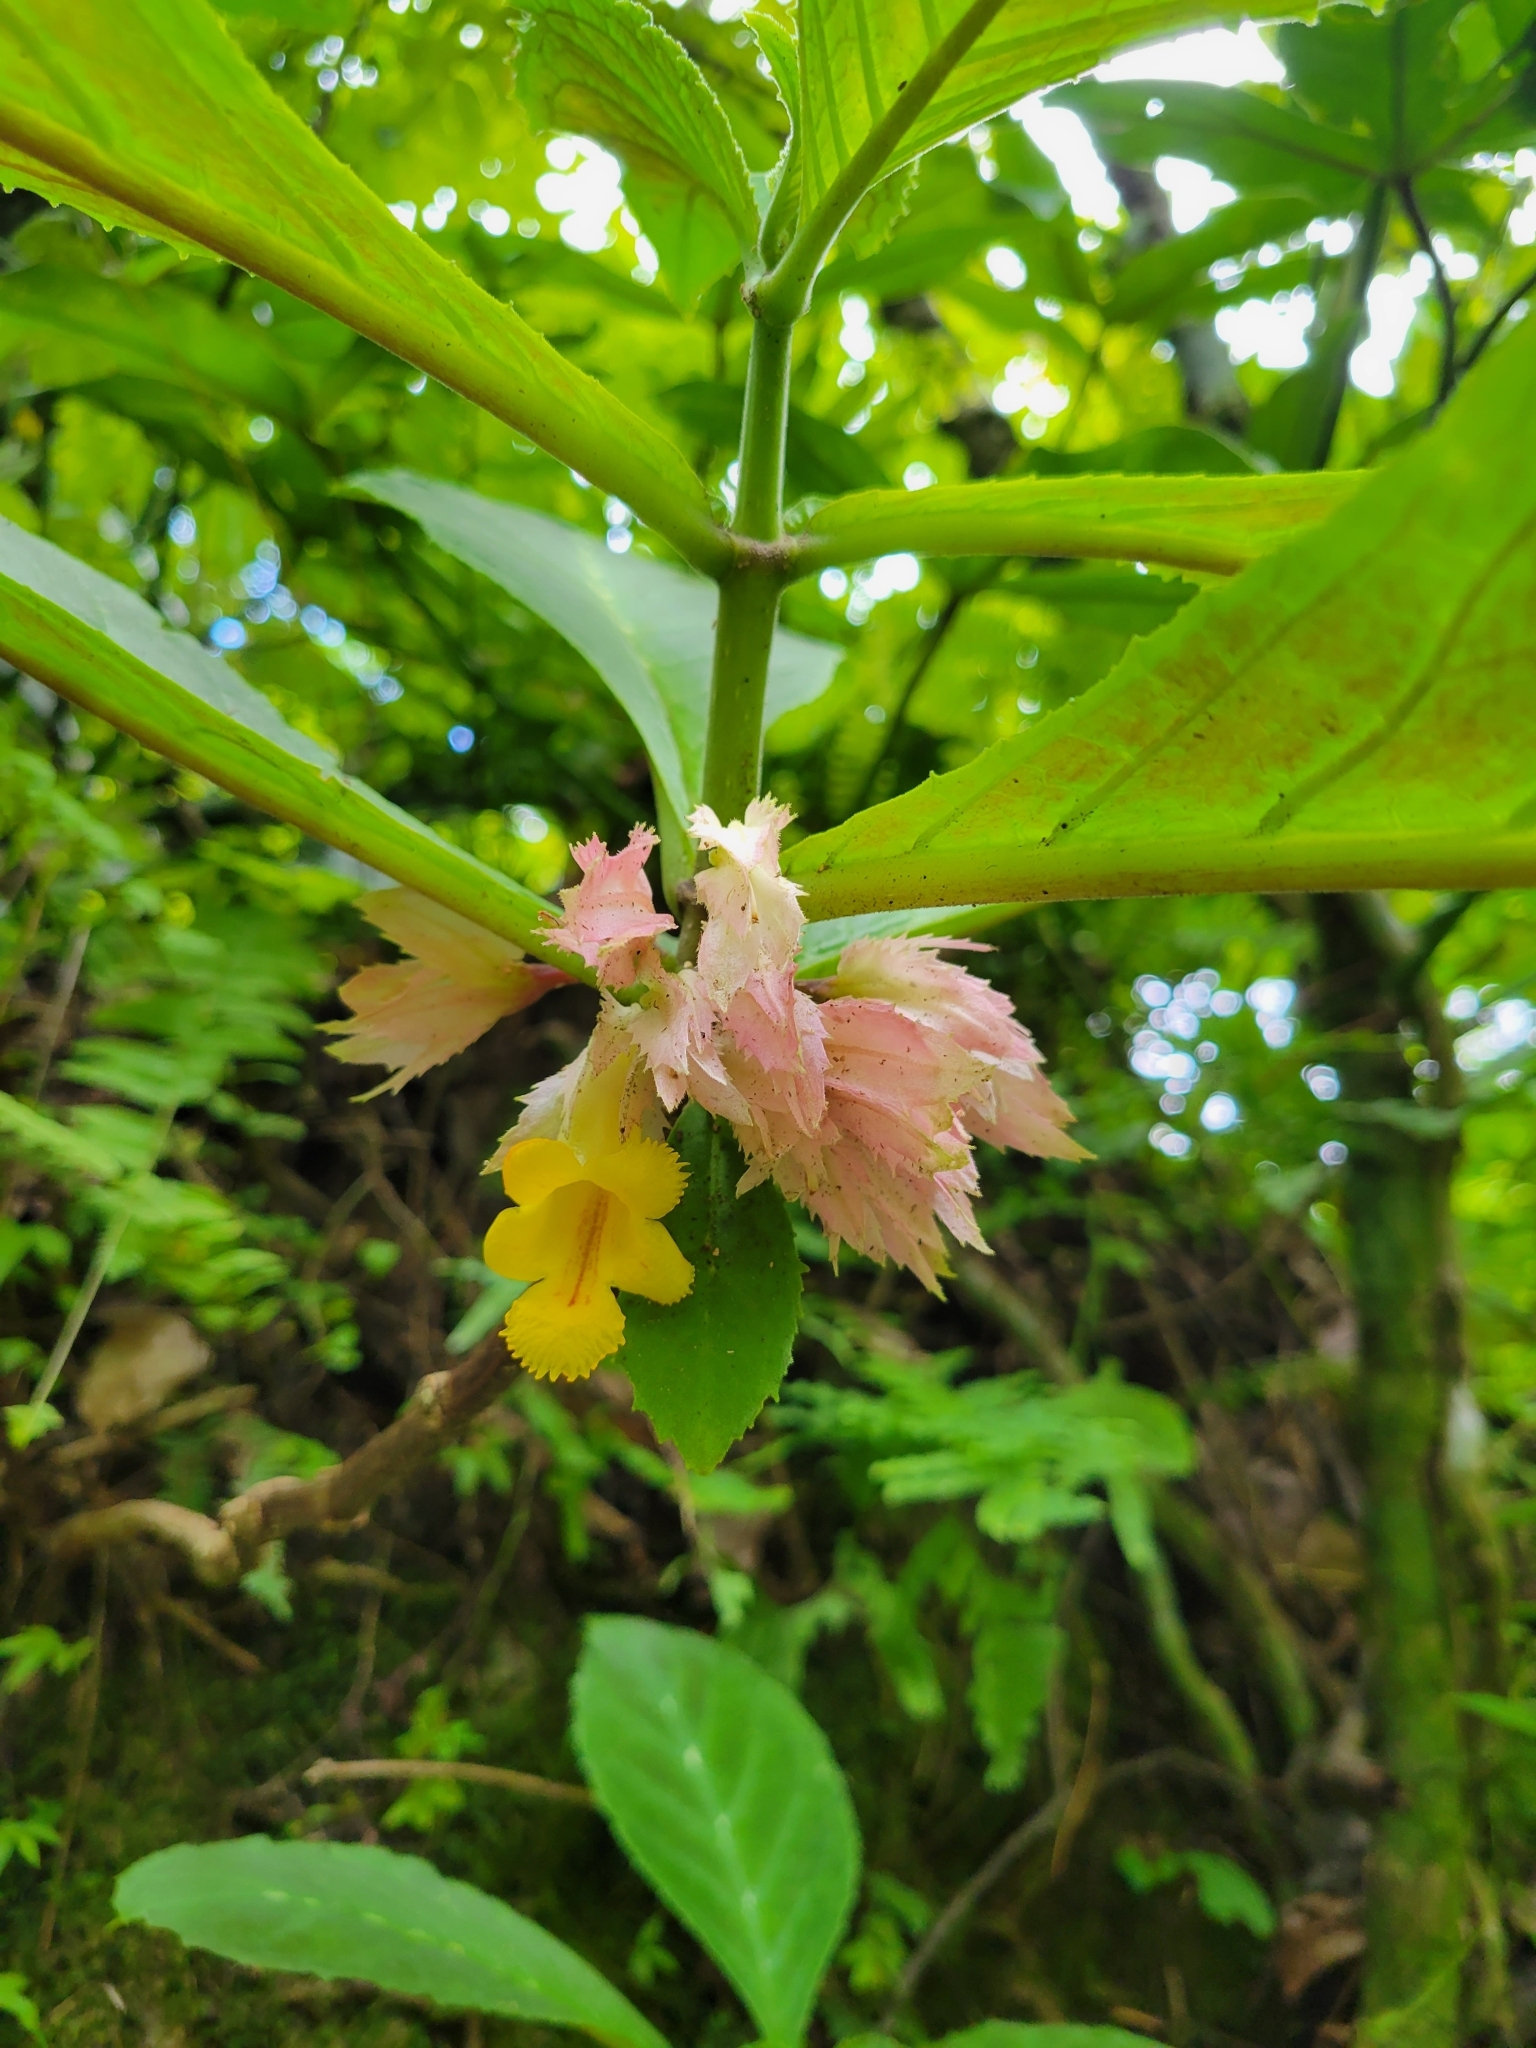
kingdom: Plantae
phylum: Tracheophyta
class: Magnoliopsida
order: Lamiales
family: Gesneriaceae
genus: Drymonia
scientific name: Drymonia parviflora
